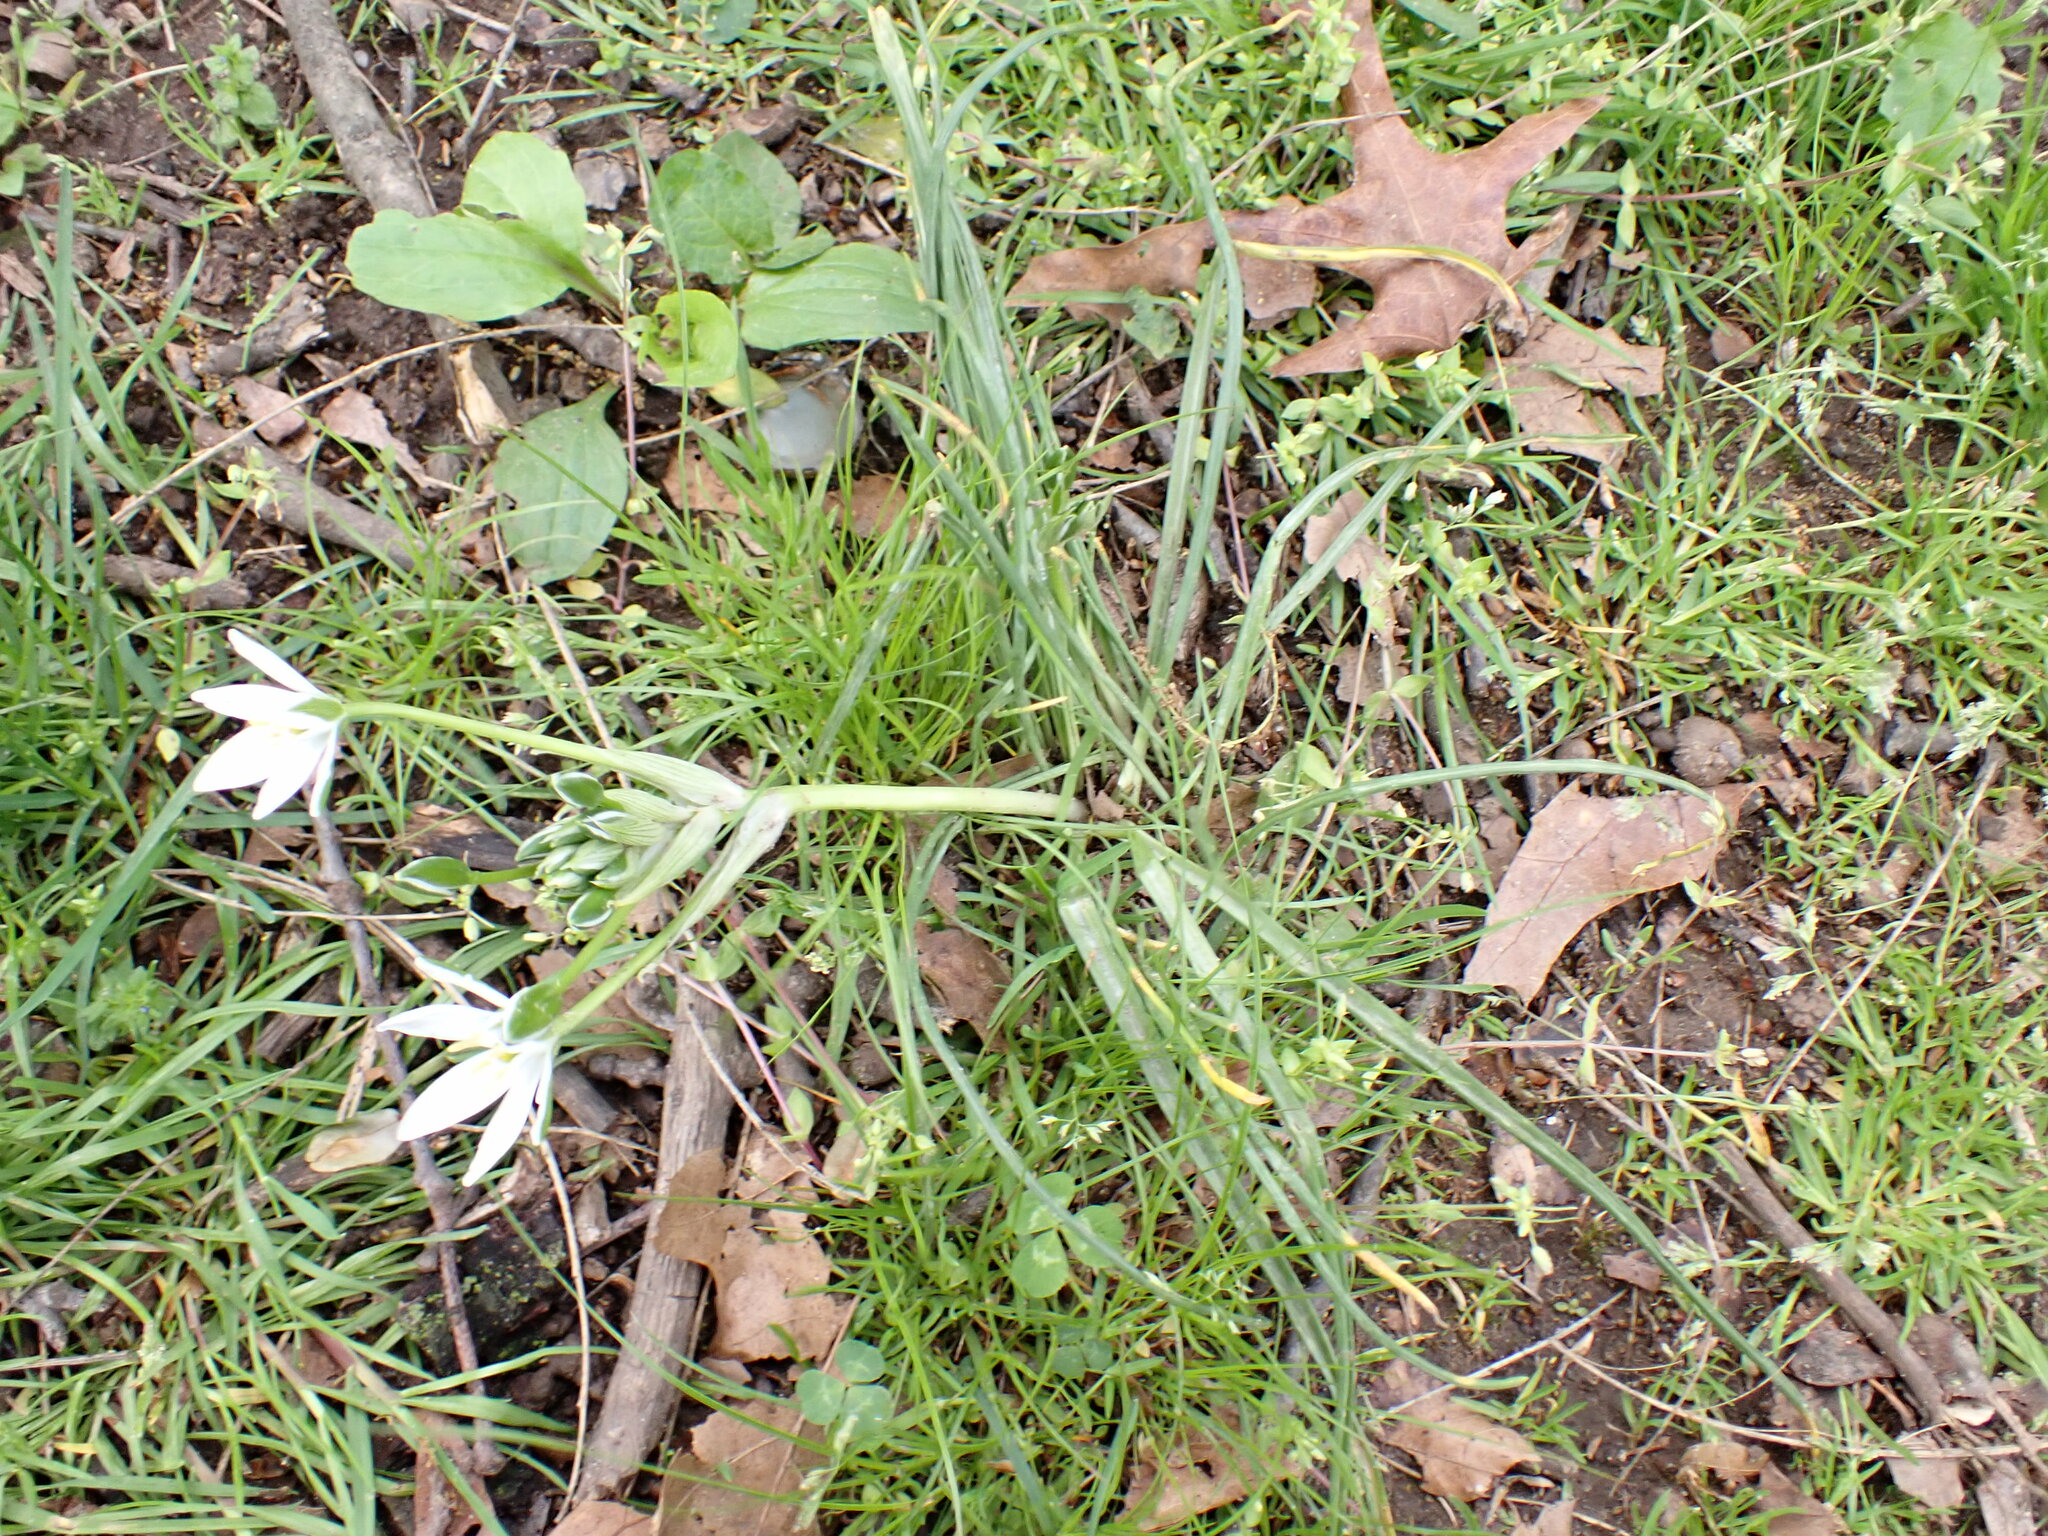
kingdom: Plantae
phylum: Tracheophyta
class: Liliopsida
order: Asparagales
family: Asparagaceae
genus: Ornithogalum
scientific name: Ornithogalum umbellatum
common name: Garden star-of-bethlehem
